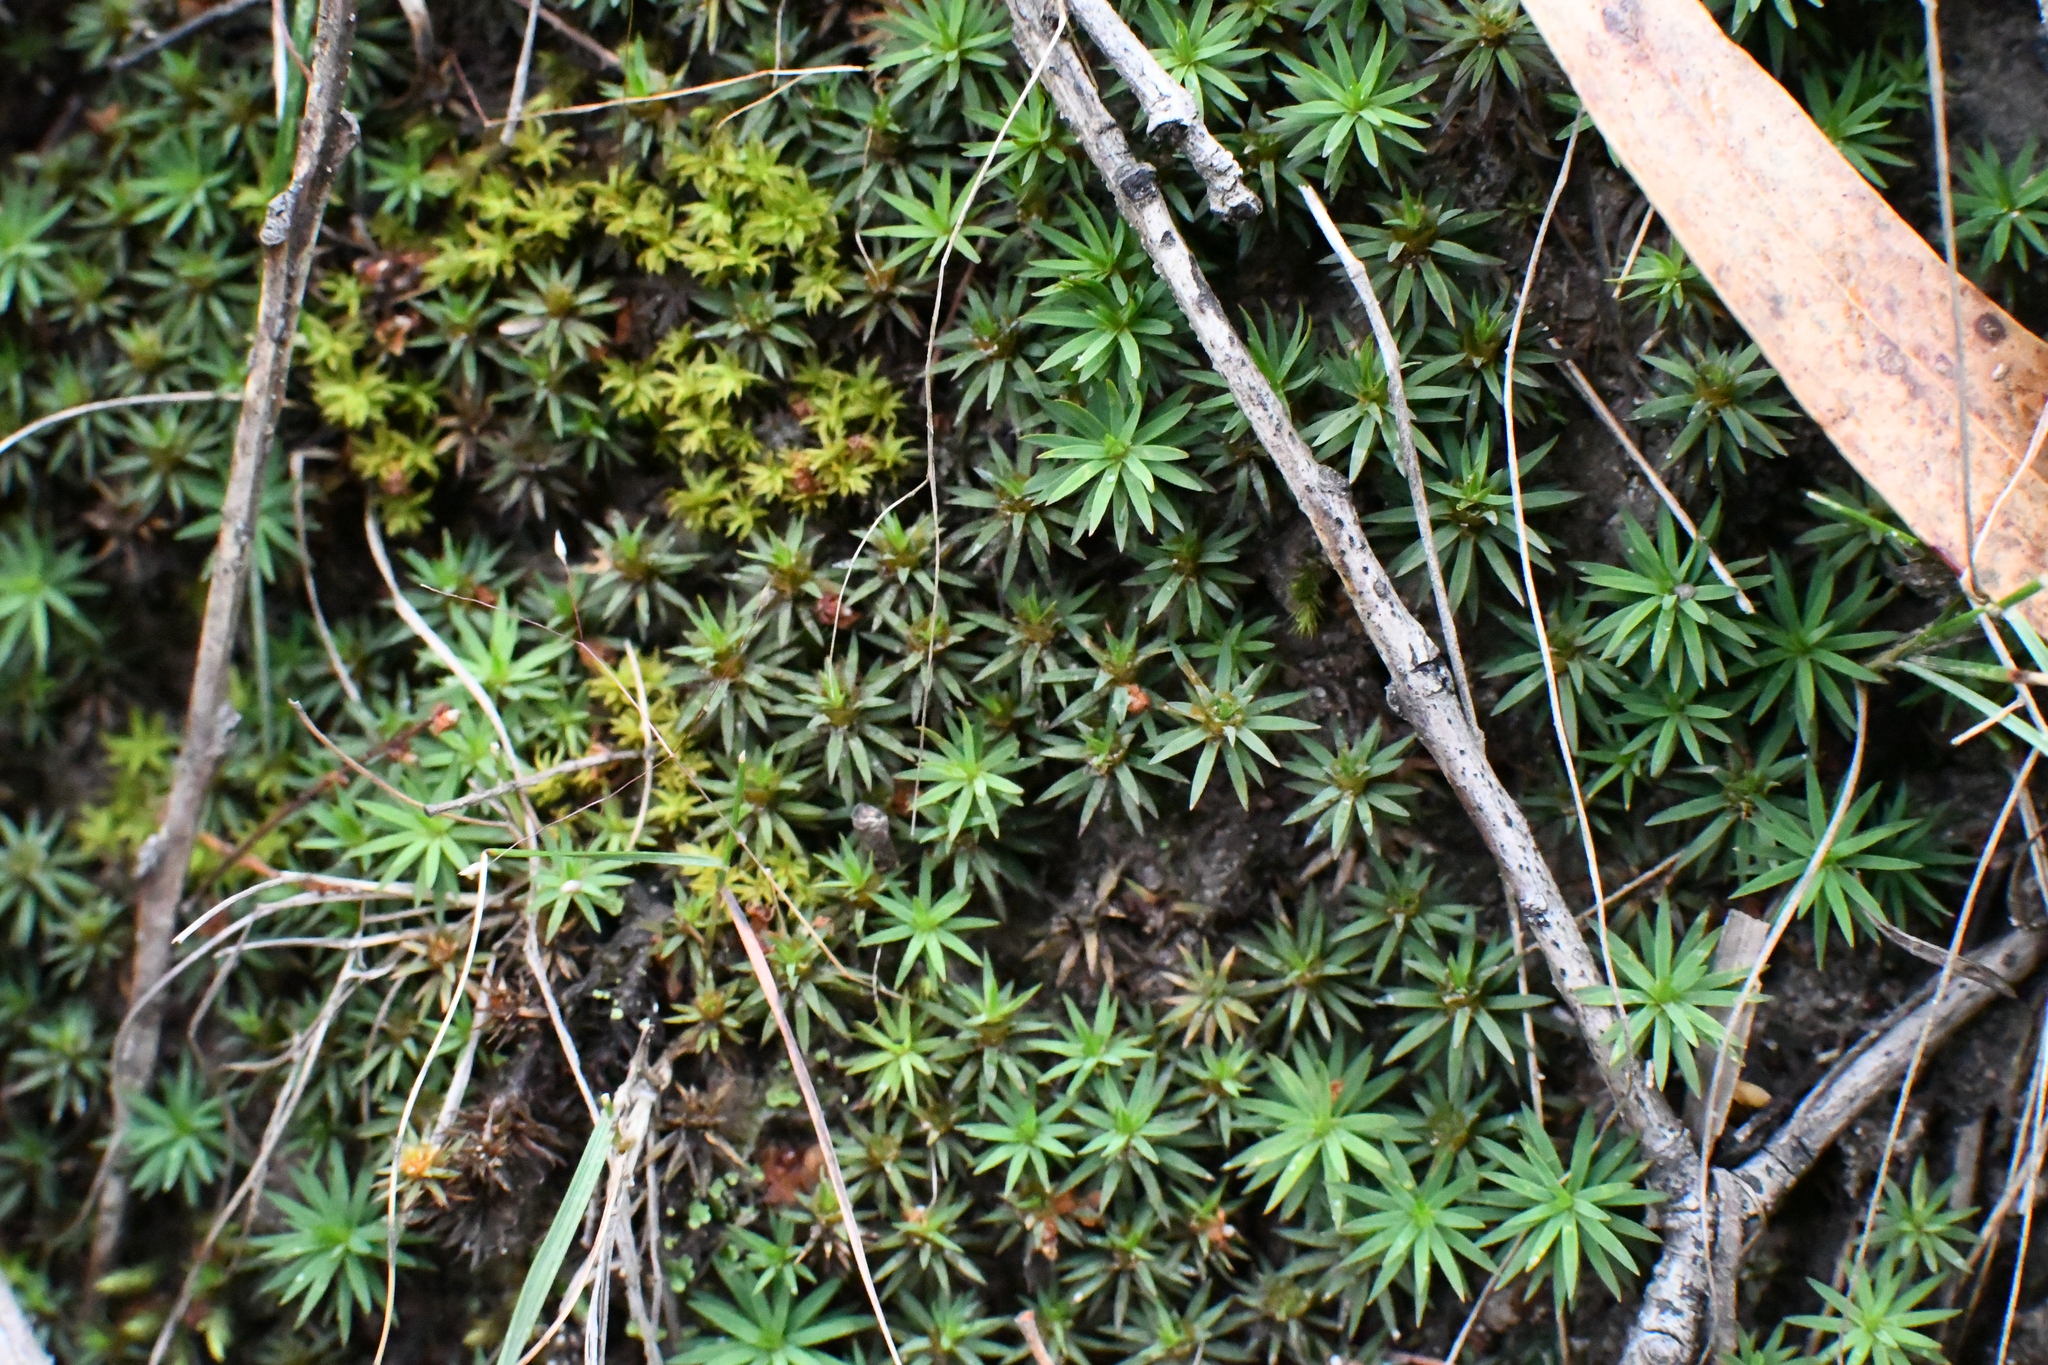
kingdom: Plantae
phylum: Bryophyta
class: Polytrichopsida
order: Polytrichales
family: Polytrichaceae
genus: Dawsonia
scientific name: Dawsonia longiseta
